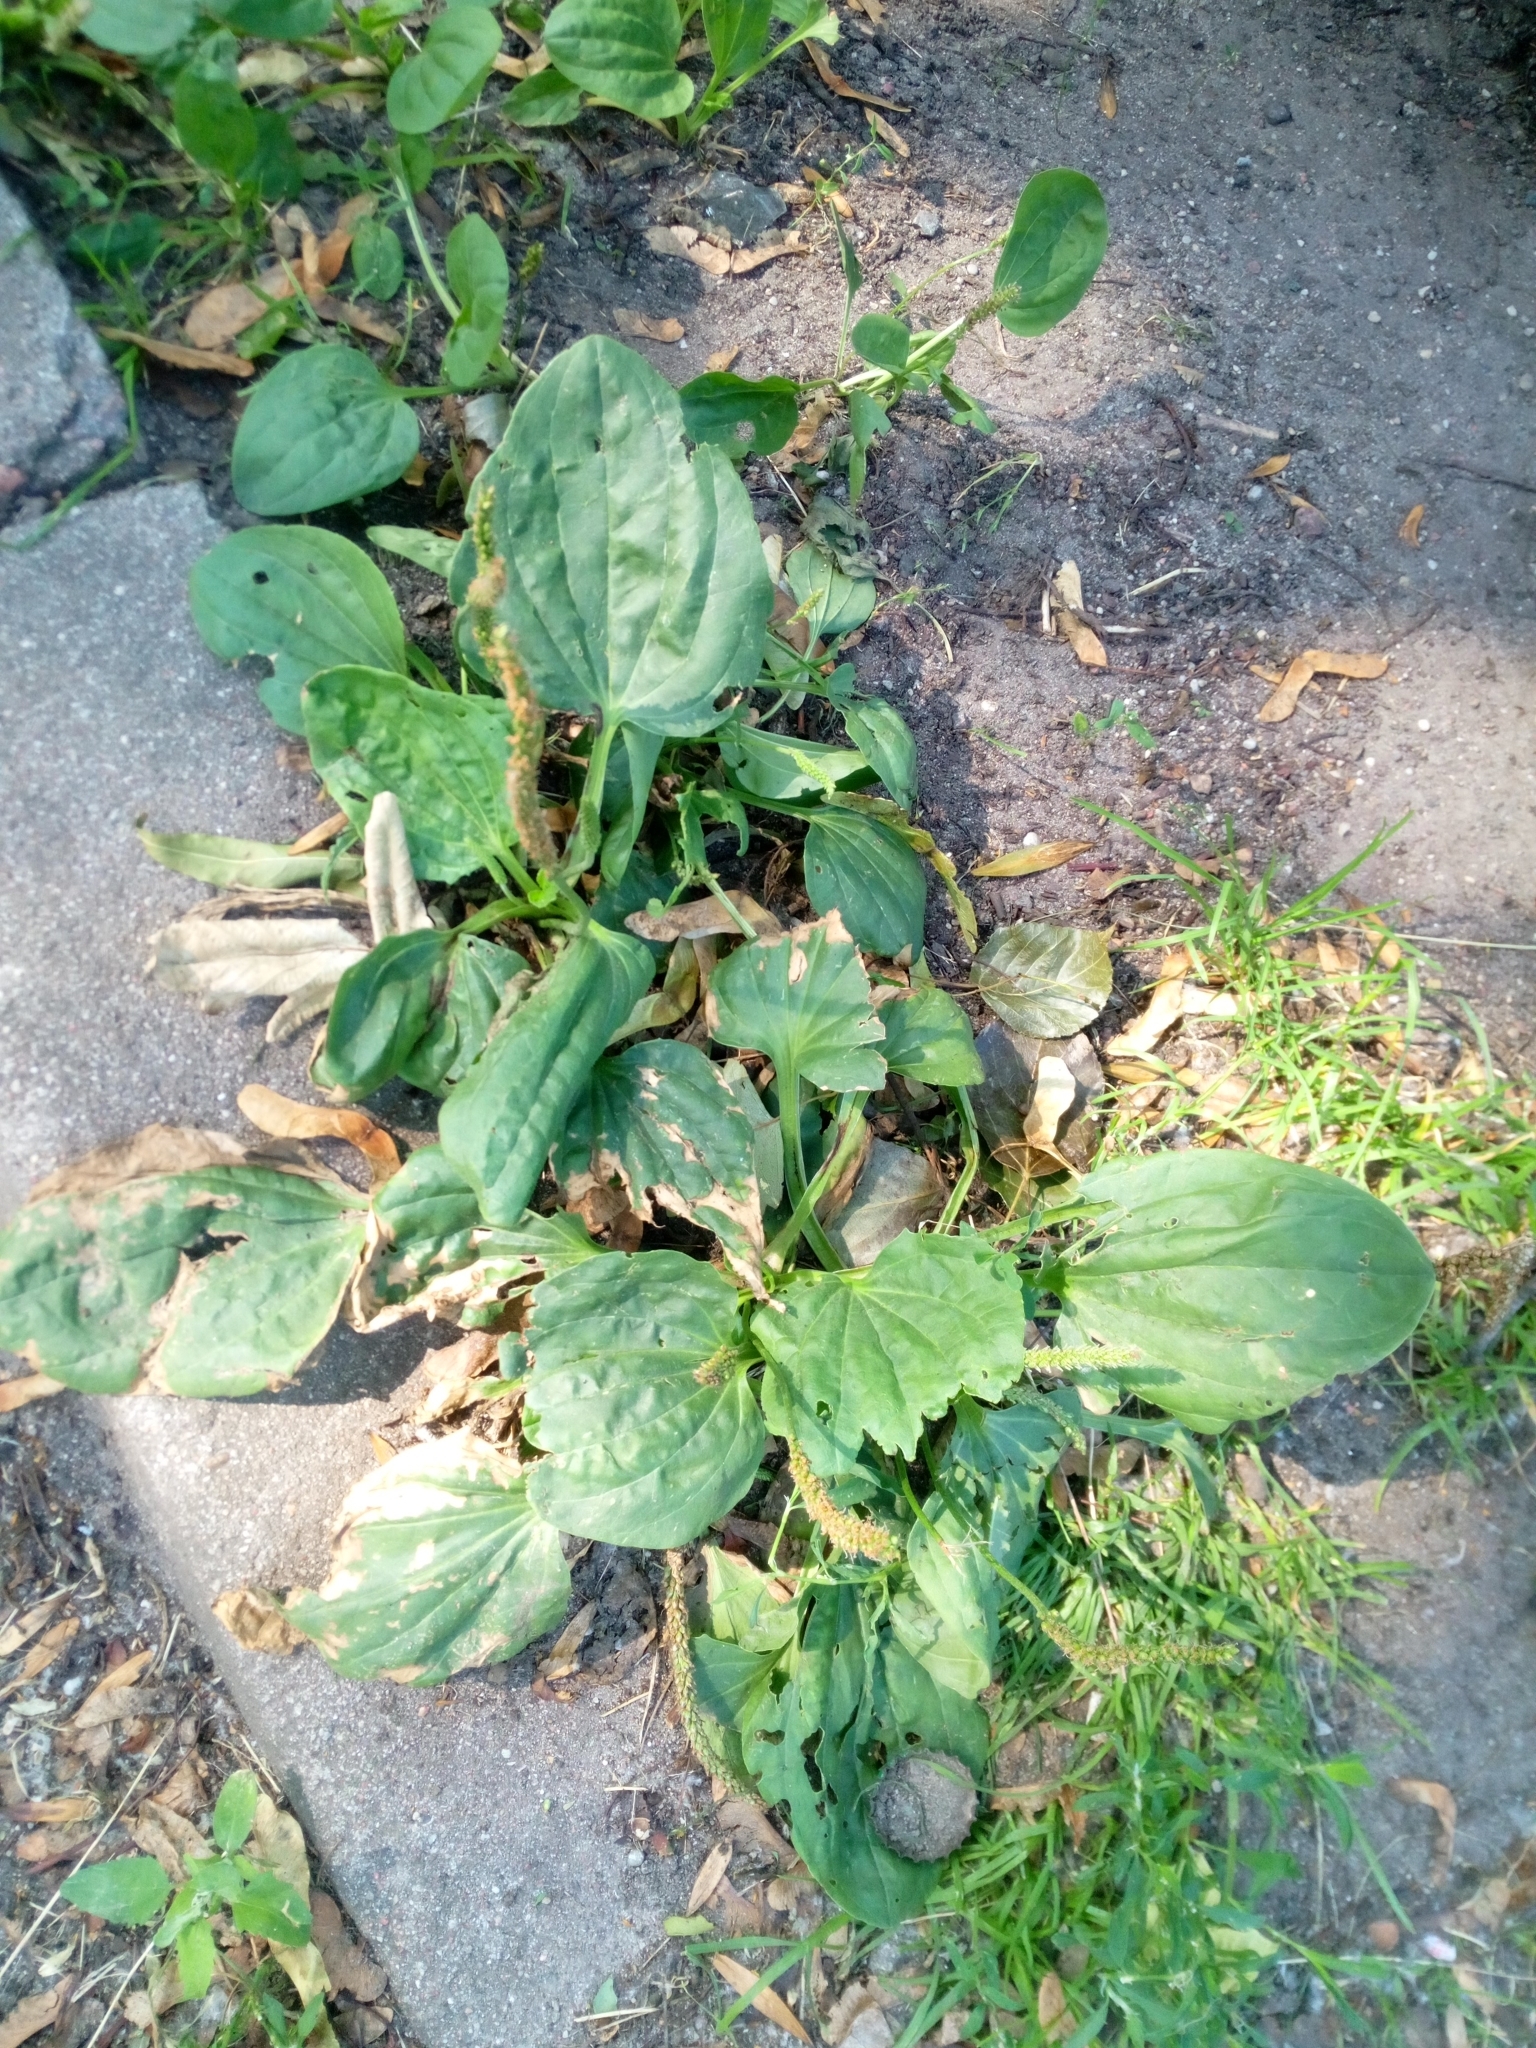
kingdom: Plantae
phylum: Tracheophyta
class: Magnoliopsida
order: Lamiales
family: Plantaginaceae
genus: Plantago
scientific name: Plantago major
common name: Common plantain
